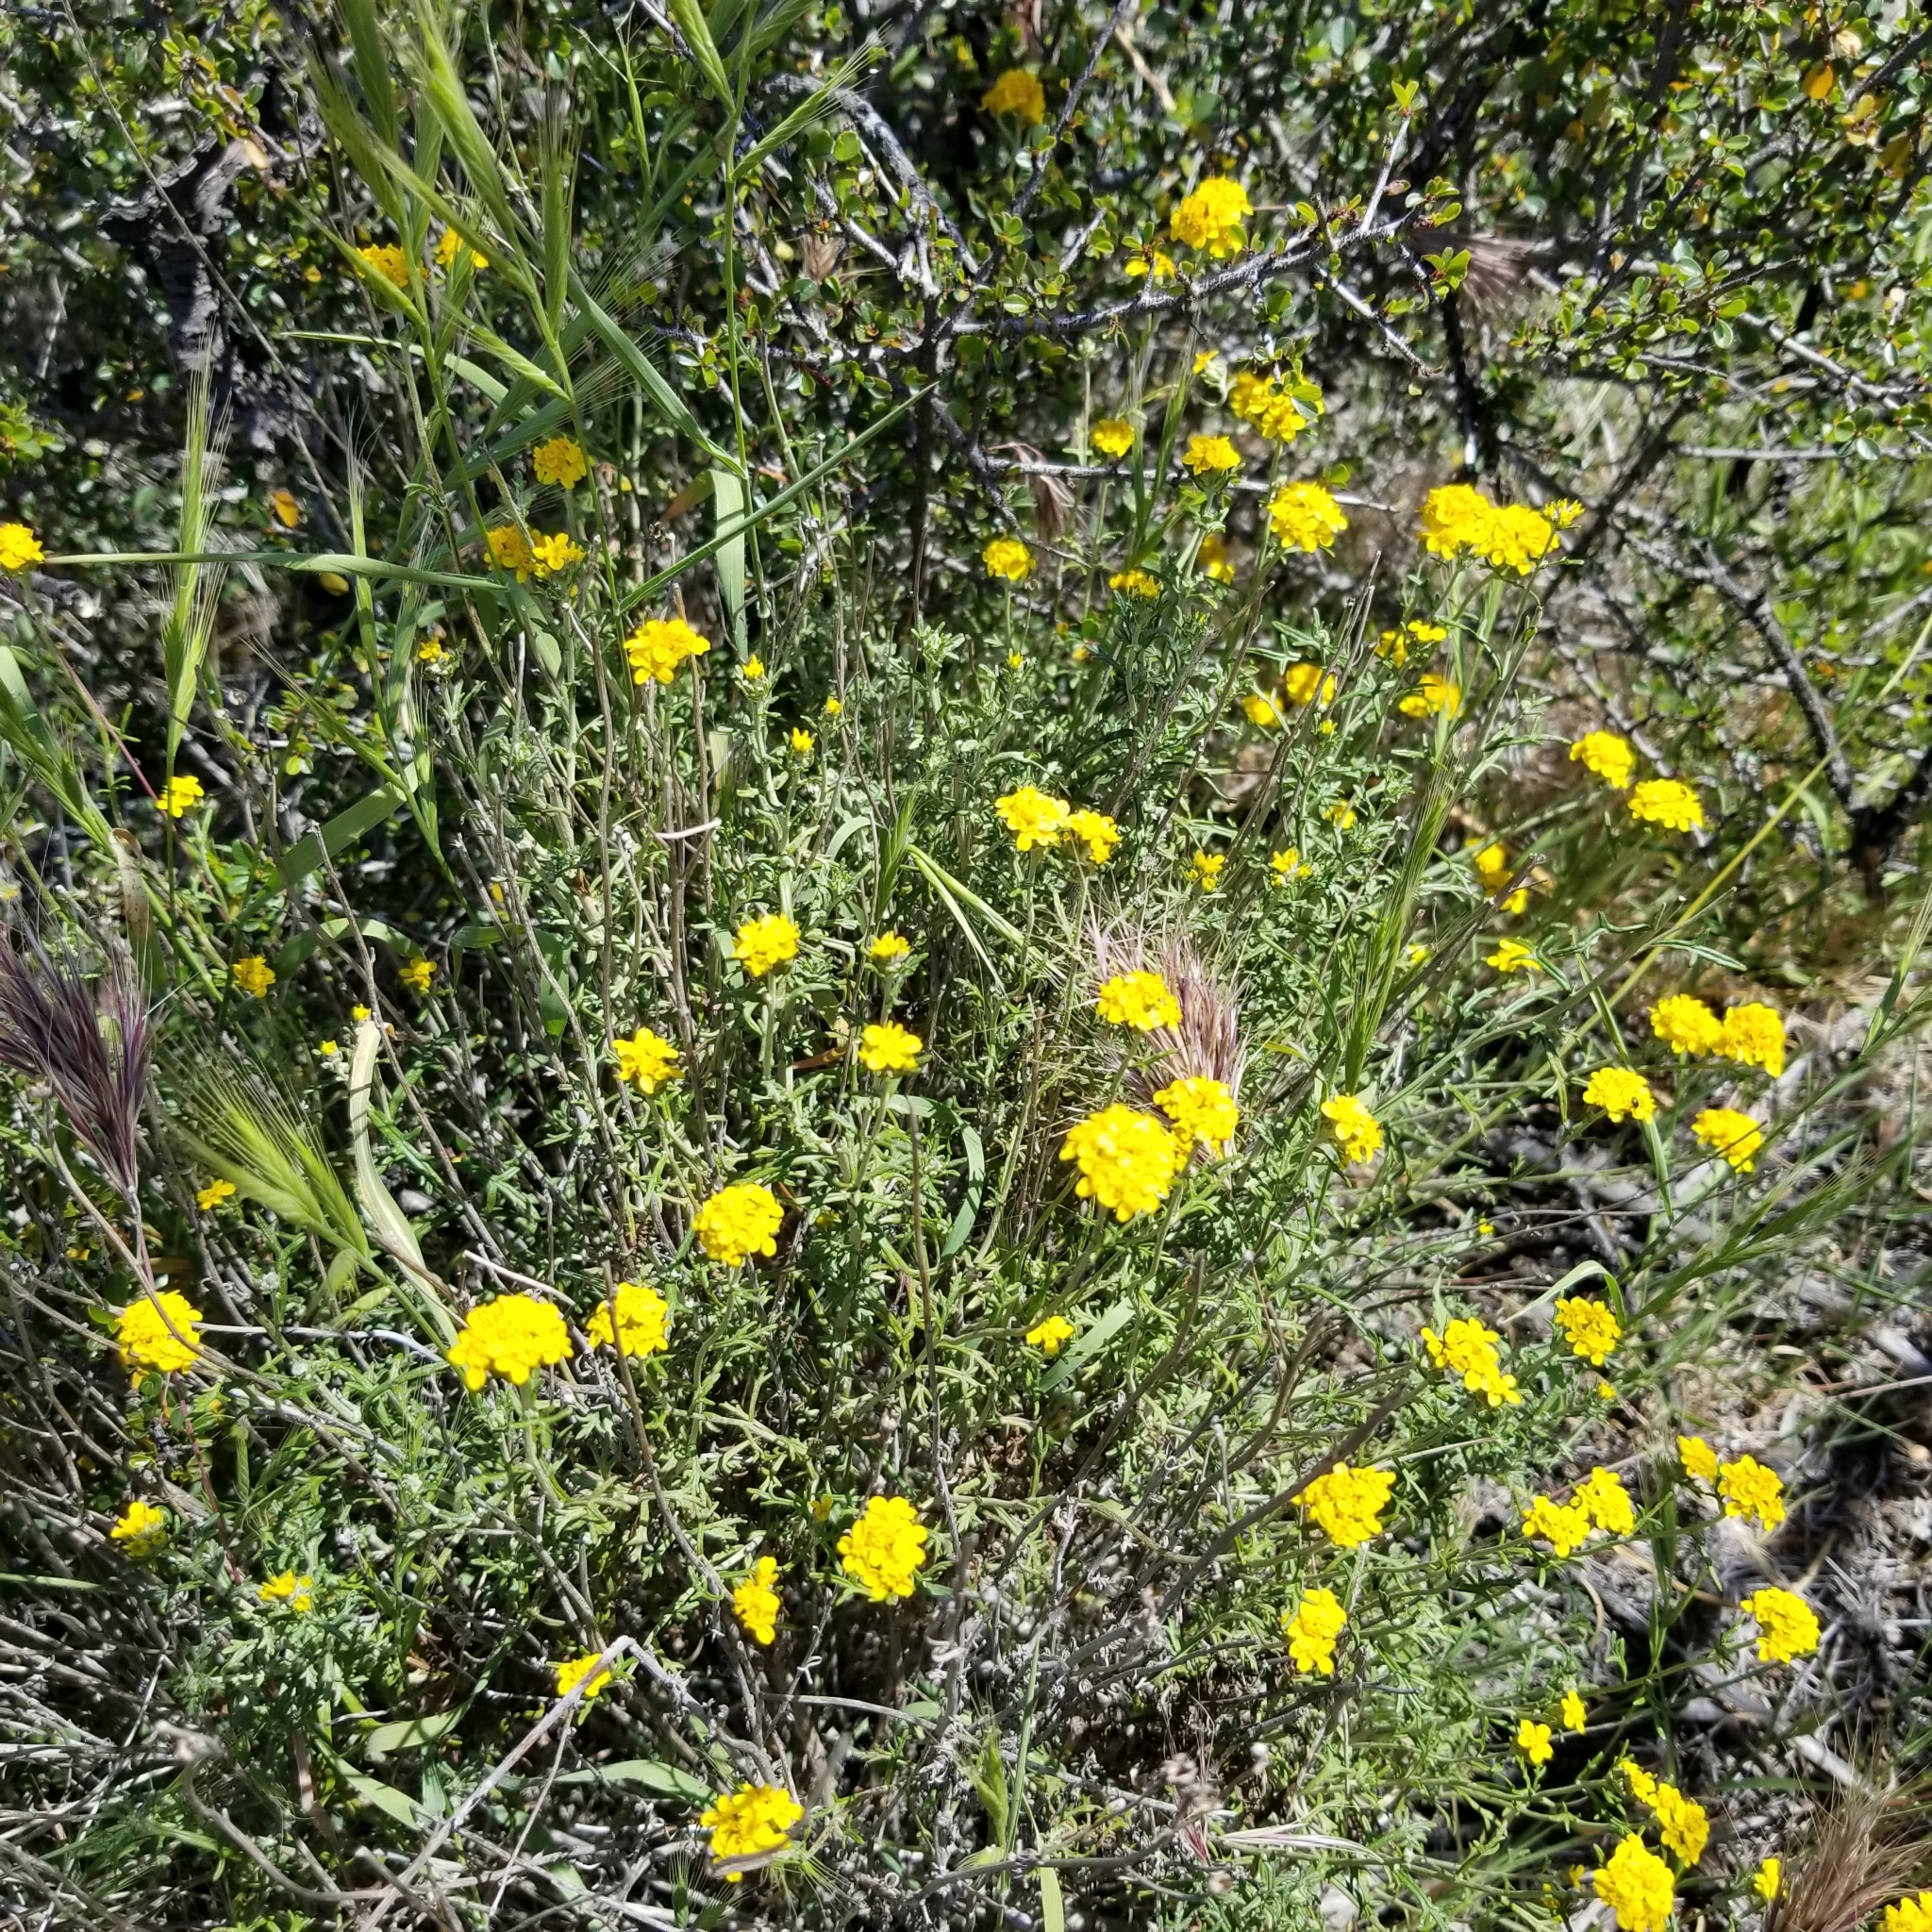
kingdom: Plantae
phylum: Tracheophyta
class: Magnoliopsida
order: Asterales
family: Asteraceae
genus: Eriophyllum
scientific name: Eriophyllum confertiflorum
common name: Golden-yarrow
